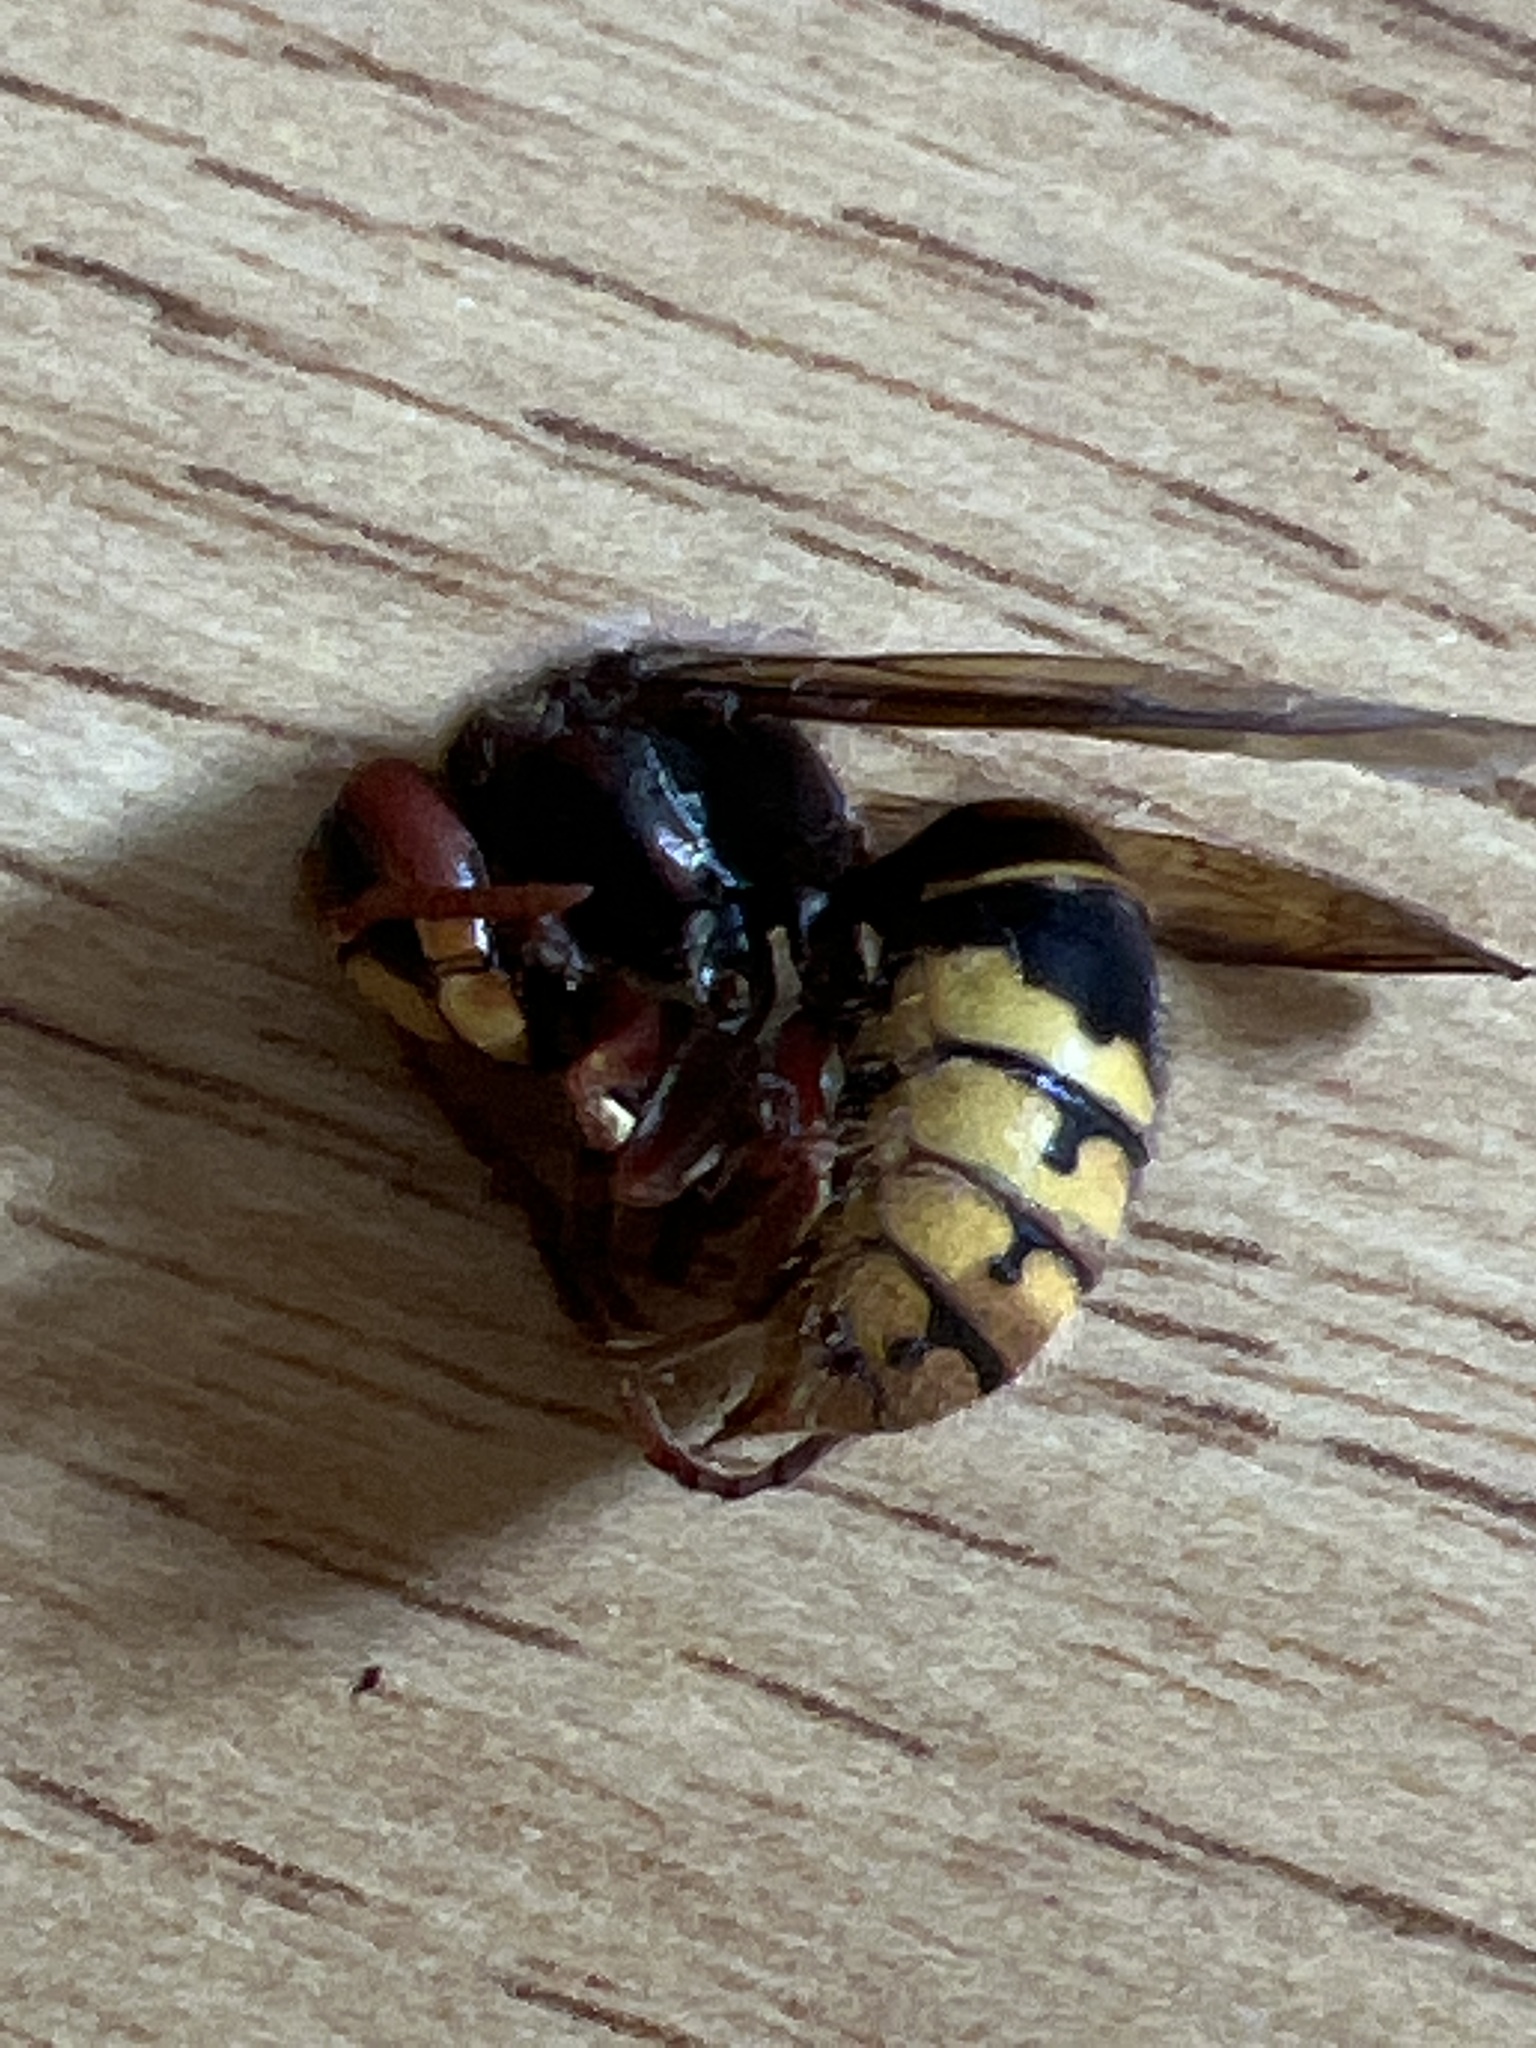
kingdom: Animalia
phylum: Arthropoda
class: Insecta
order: Hymenoptera
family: Vespidae
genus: Vespa
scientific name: Vespa crabro
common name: Hornet
